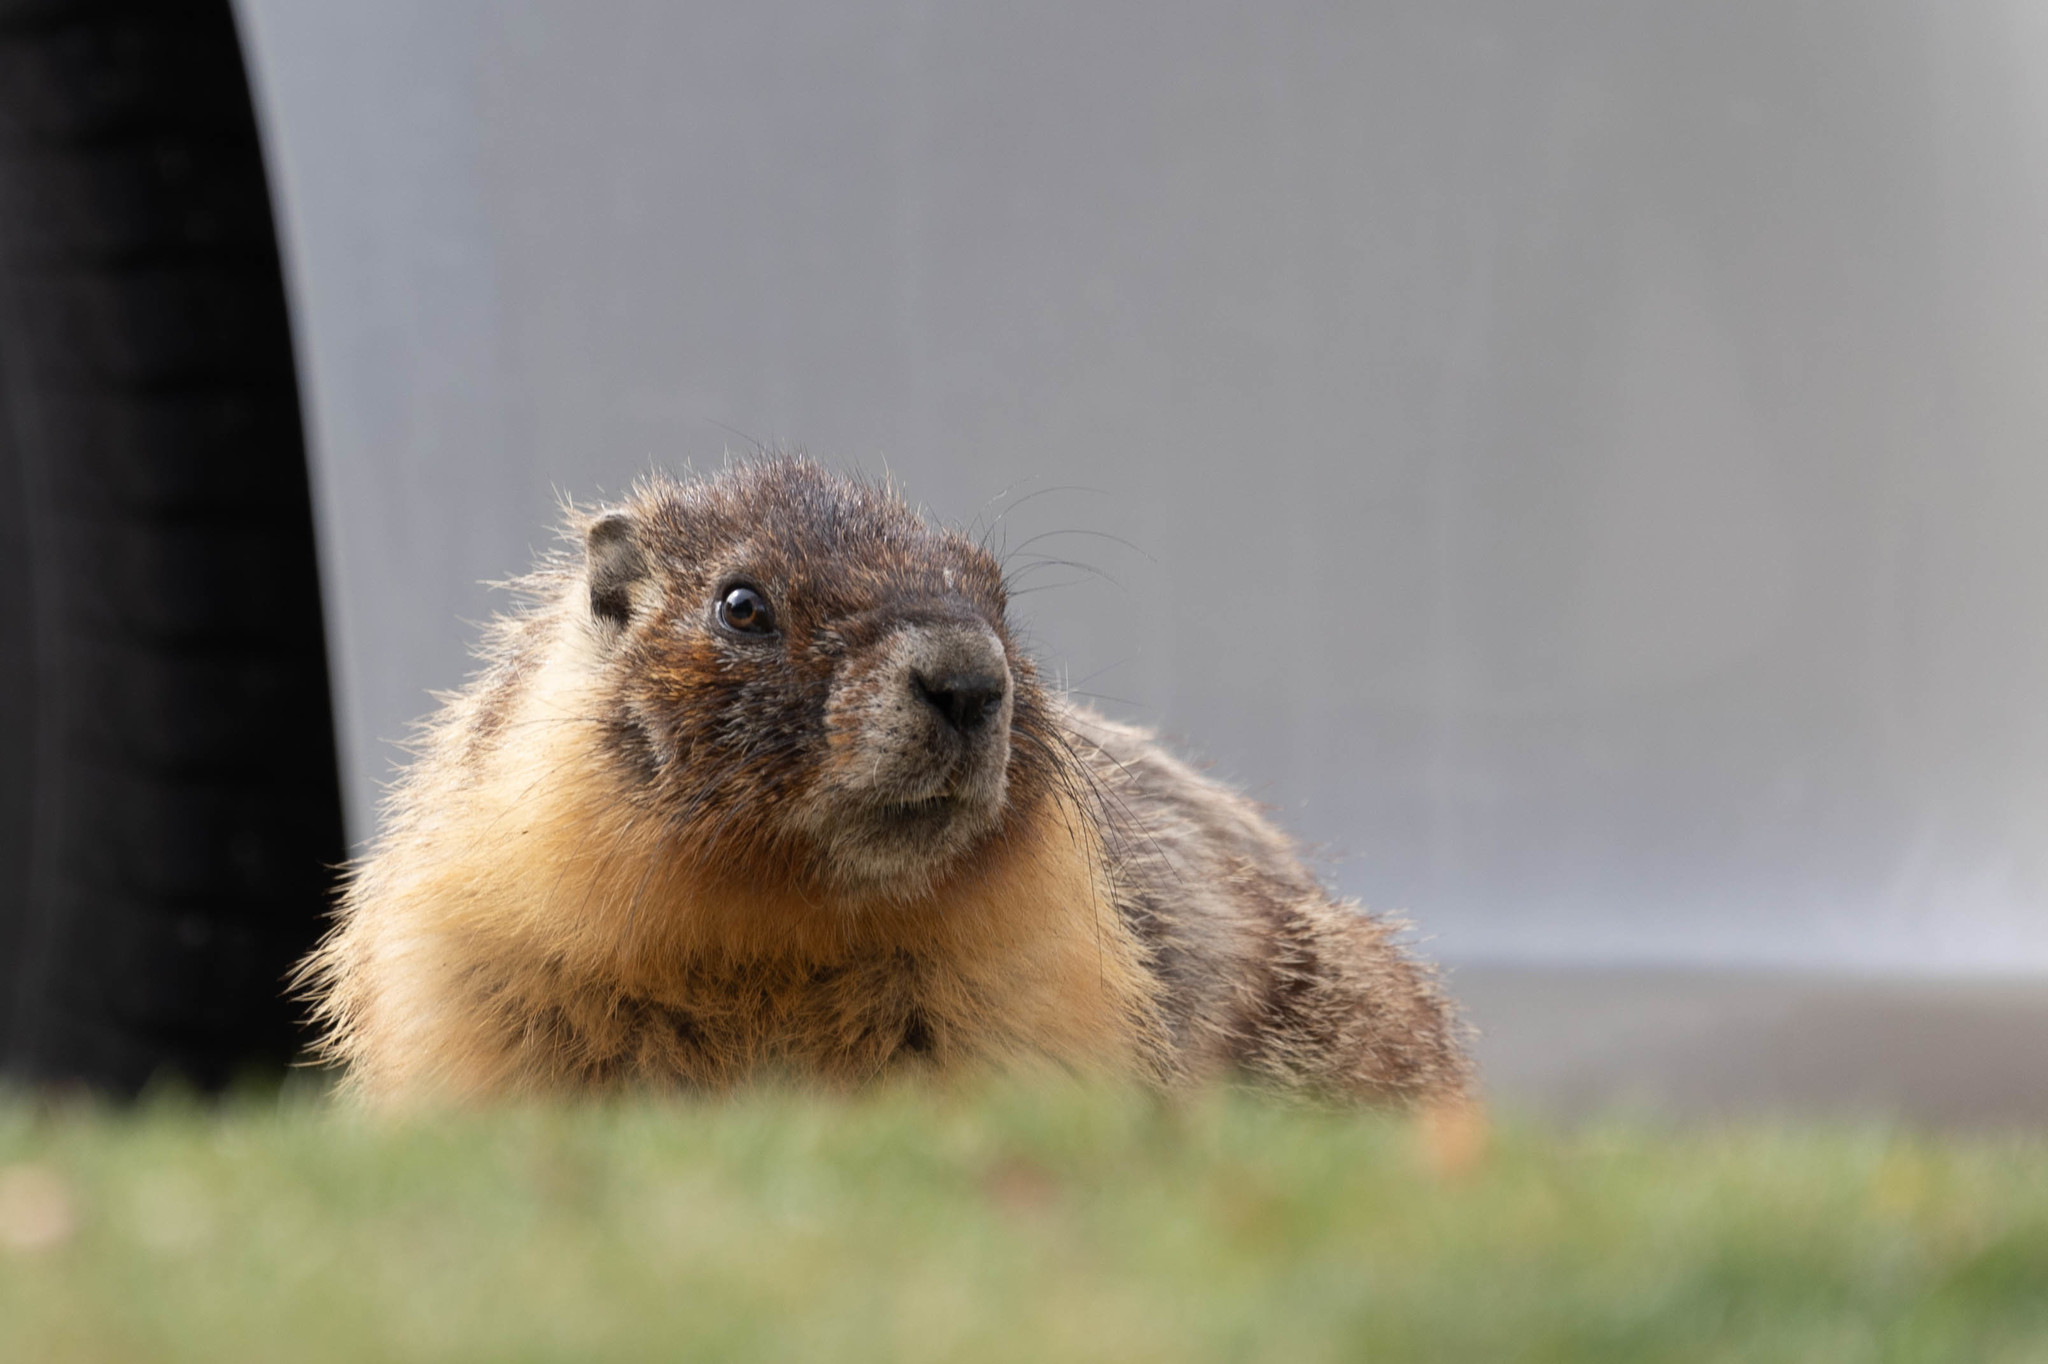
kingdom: Animalia
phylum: Chordata
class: Mammalia
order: Rodentia
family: Sciuridae
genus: Marmota
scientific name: Marmota flaviventris
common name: Yellow-bellied marmot
